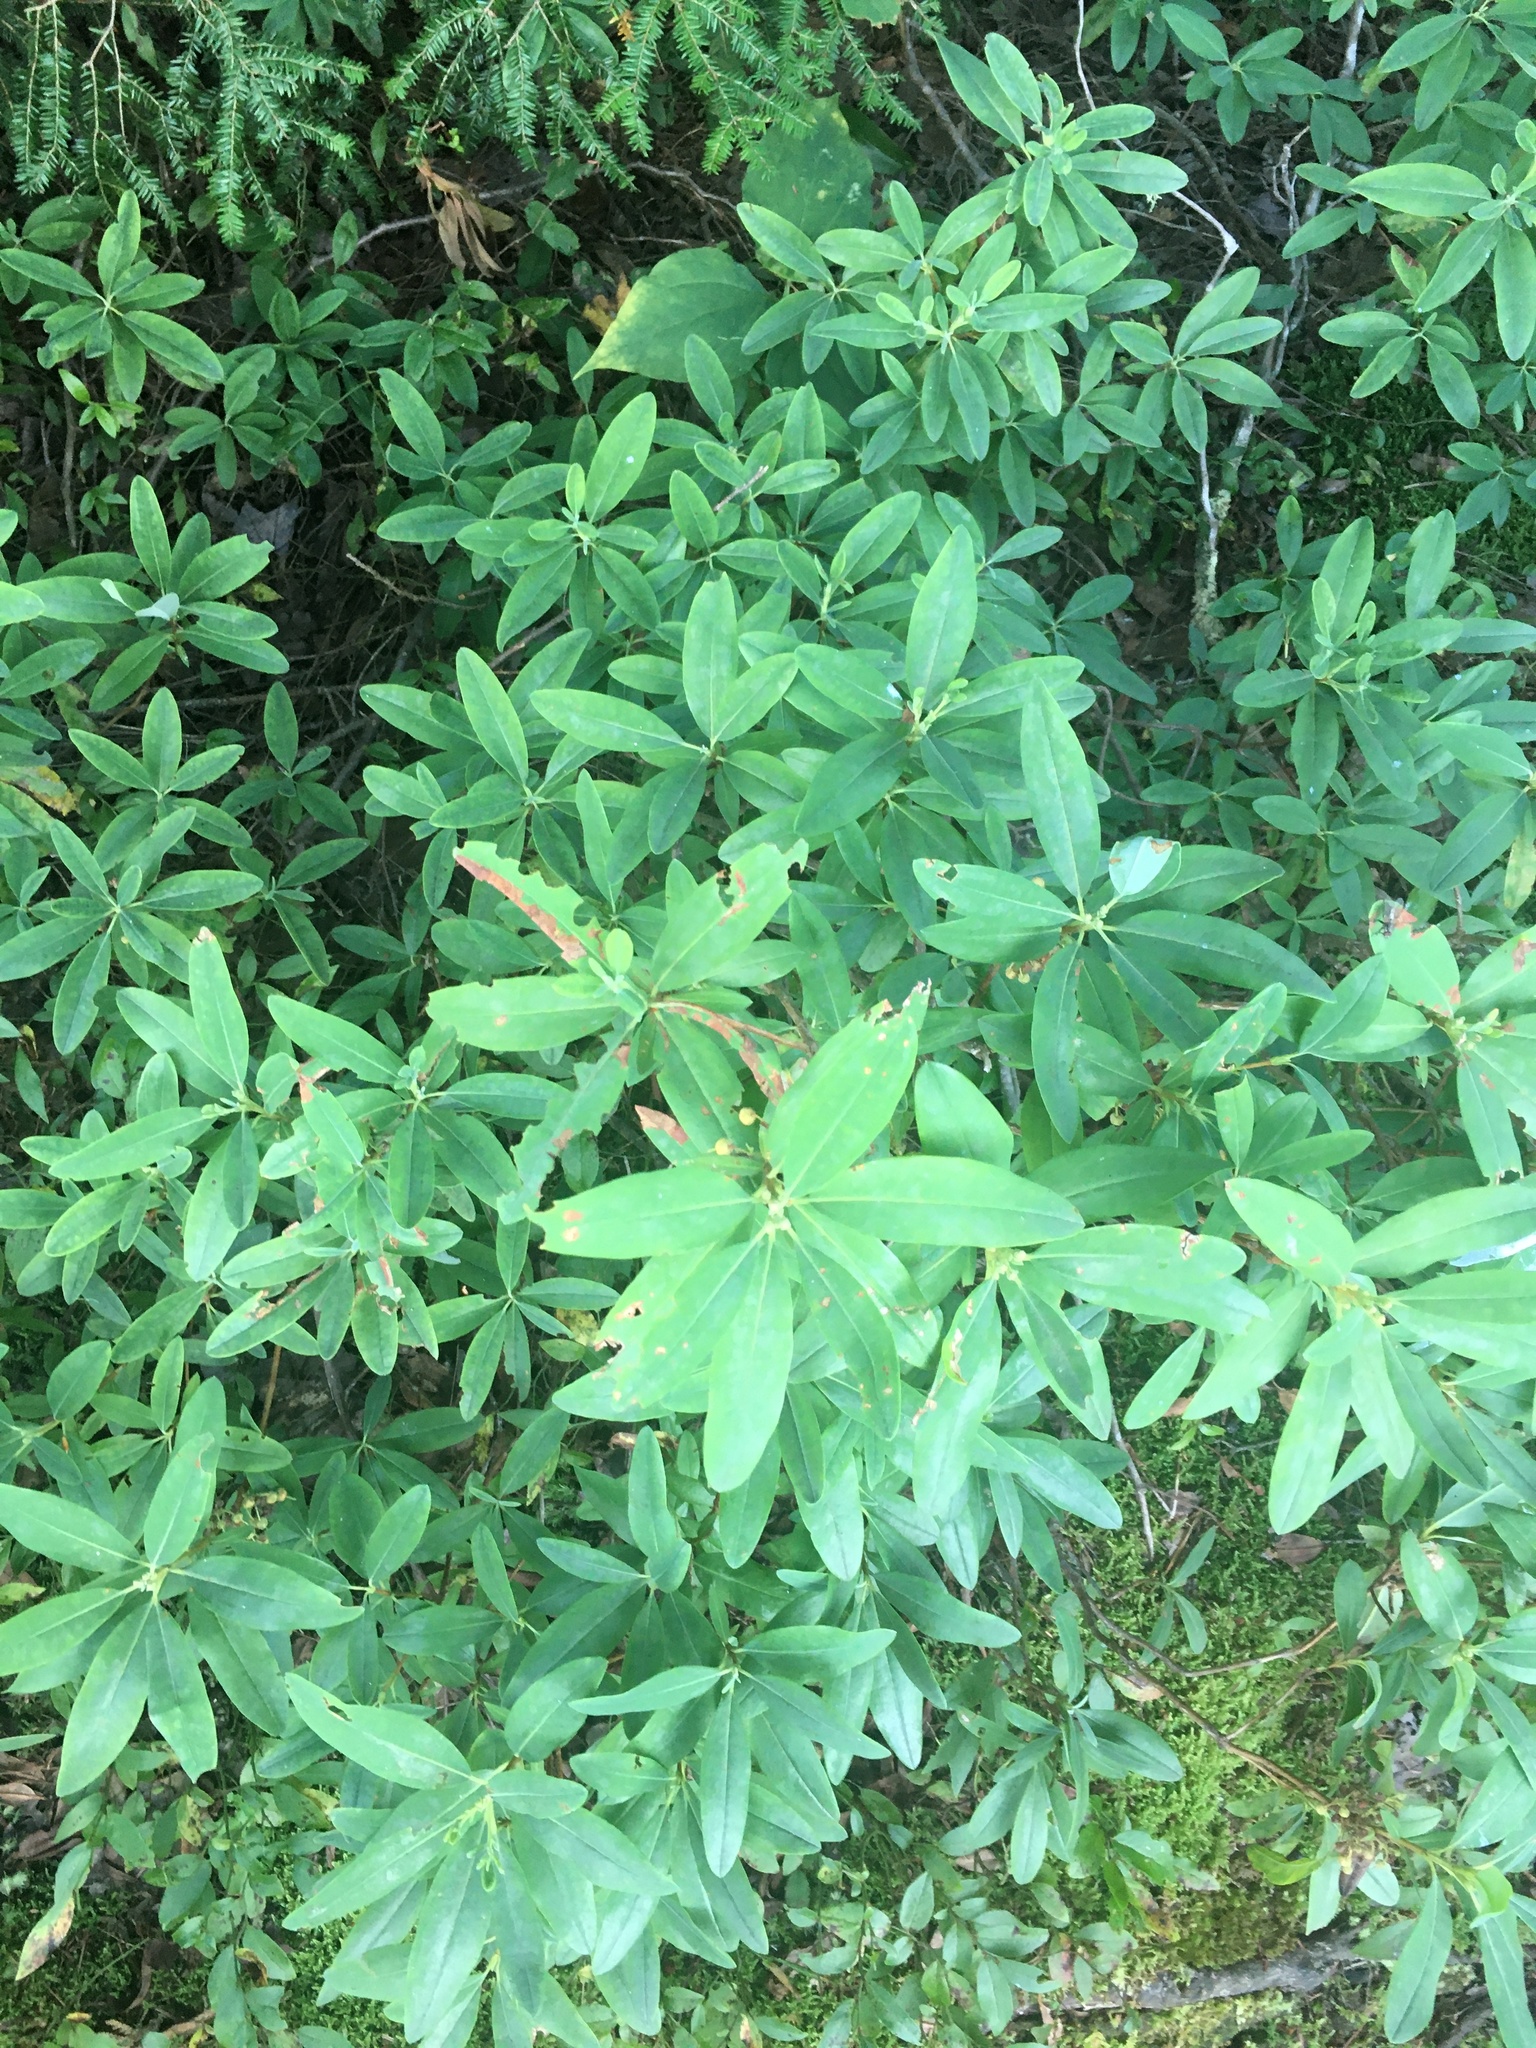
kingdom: Plantae
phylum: Tracheophyta
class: Magnoliopsida
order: Ericales
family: Ericaceae
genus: Kalmia
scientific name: Kalmia angustifolia
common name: Sheep-laurel
